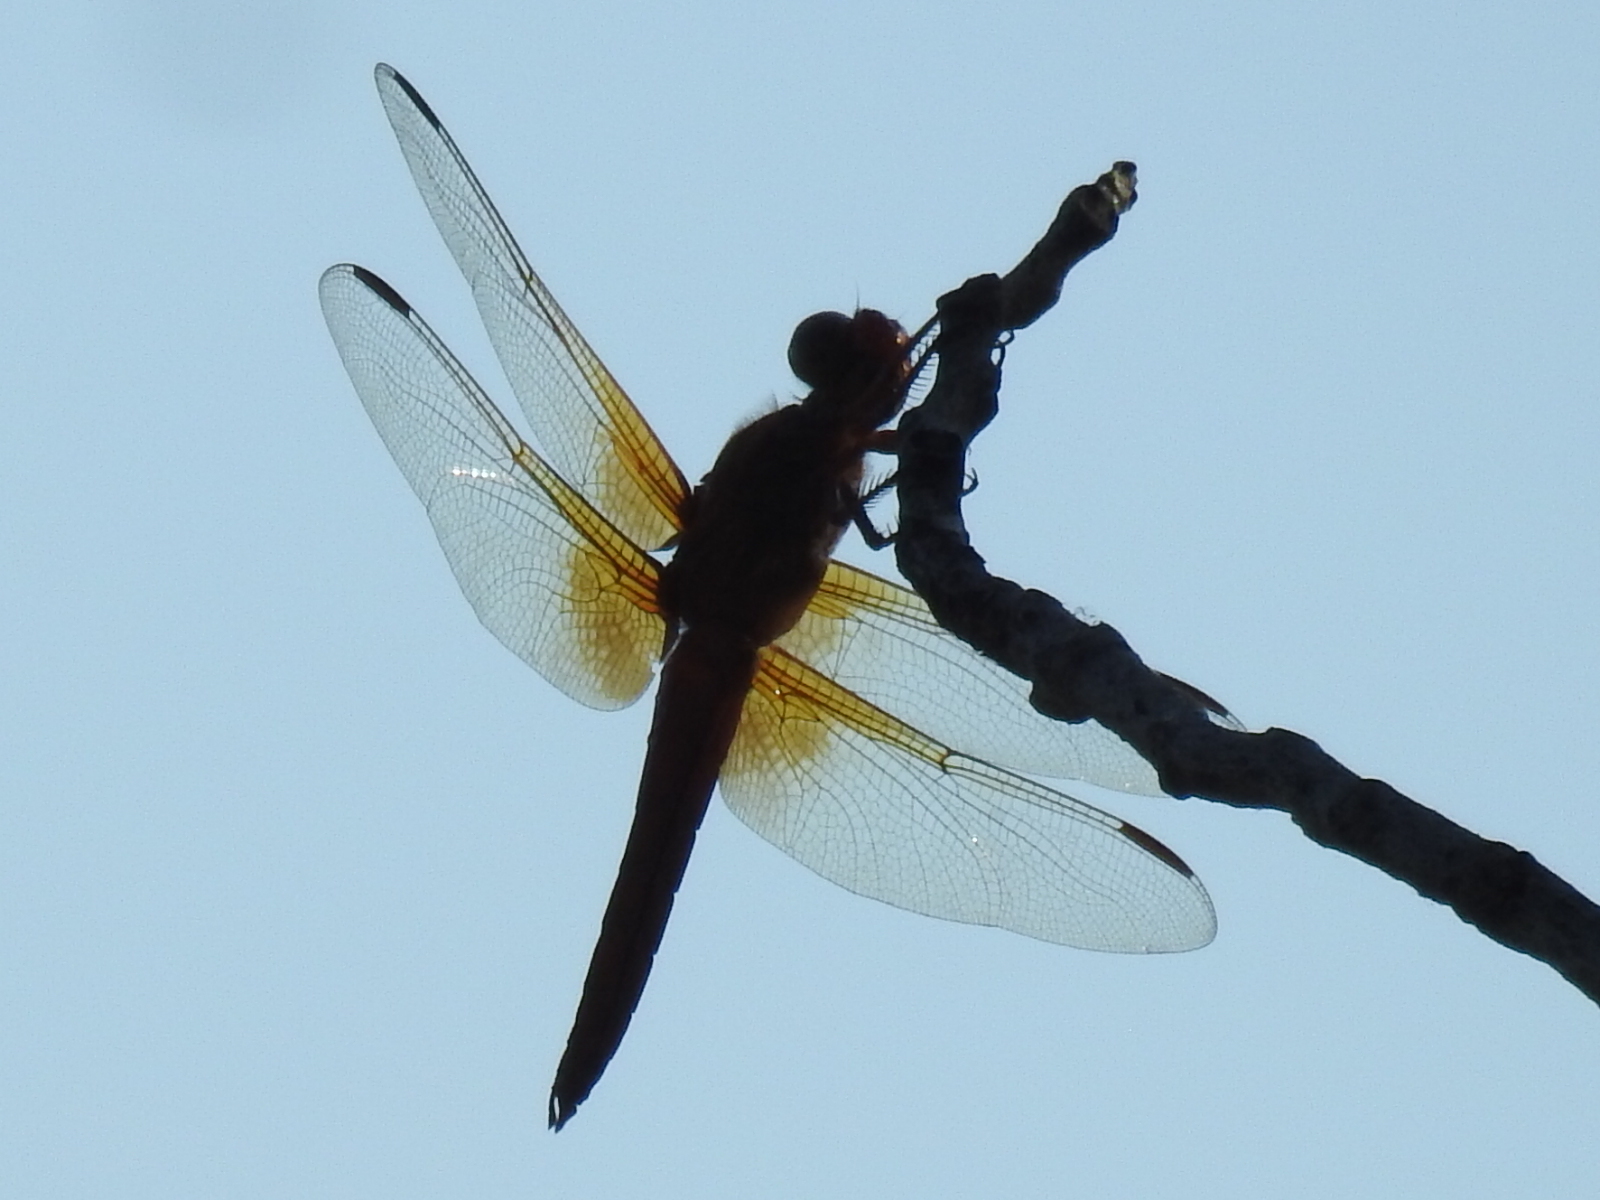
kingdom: Animalia
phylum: Arthropoda
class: Insecta
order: Odonata
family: Libellulidae
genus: Libellula
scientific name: Libellula croceipennis
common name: Neon skimmer
